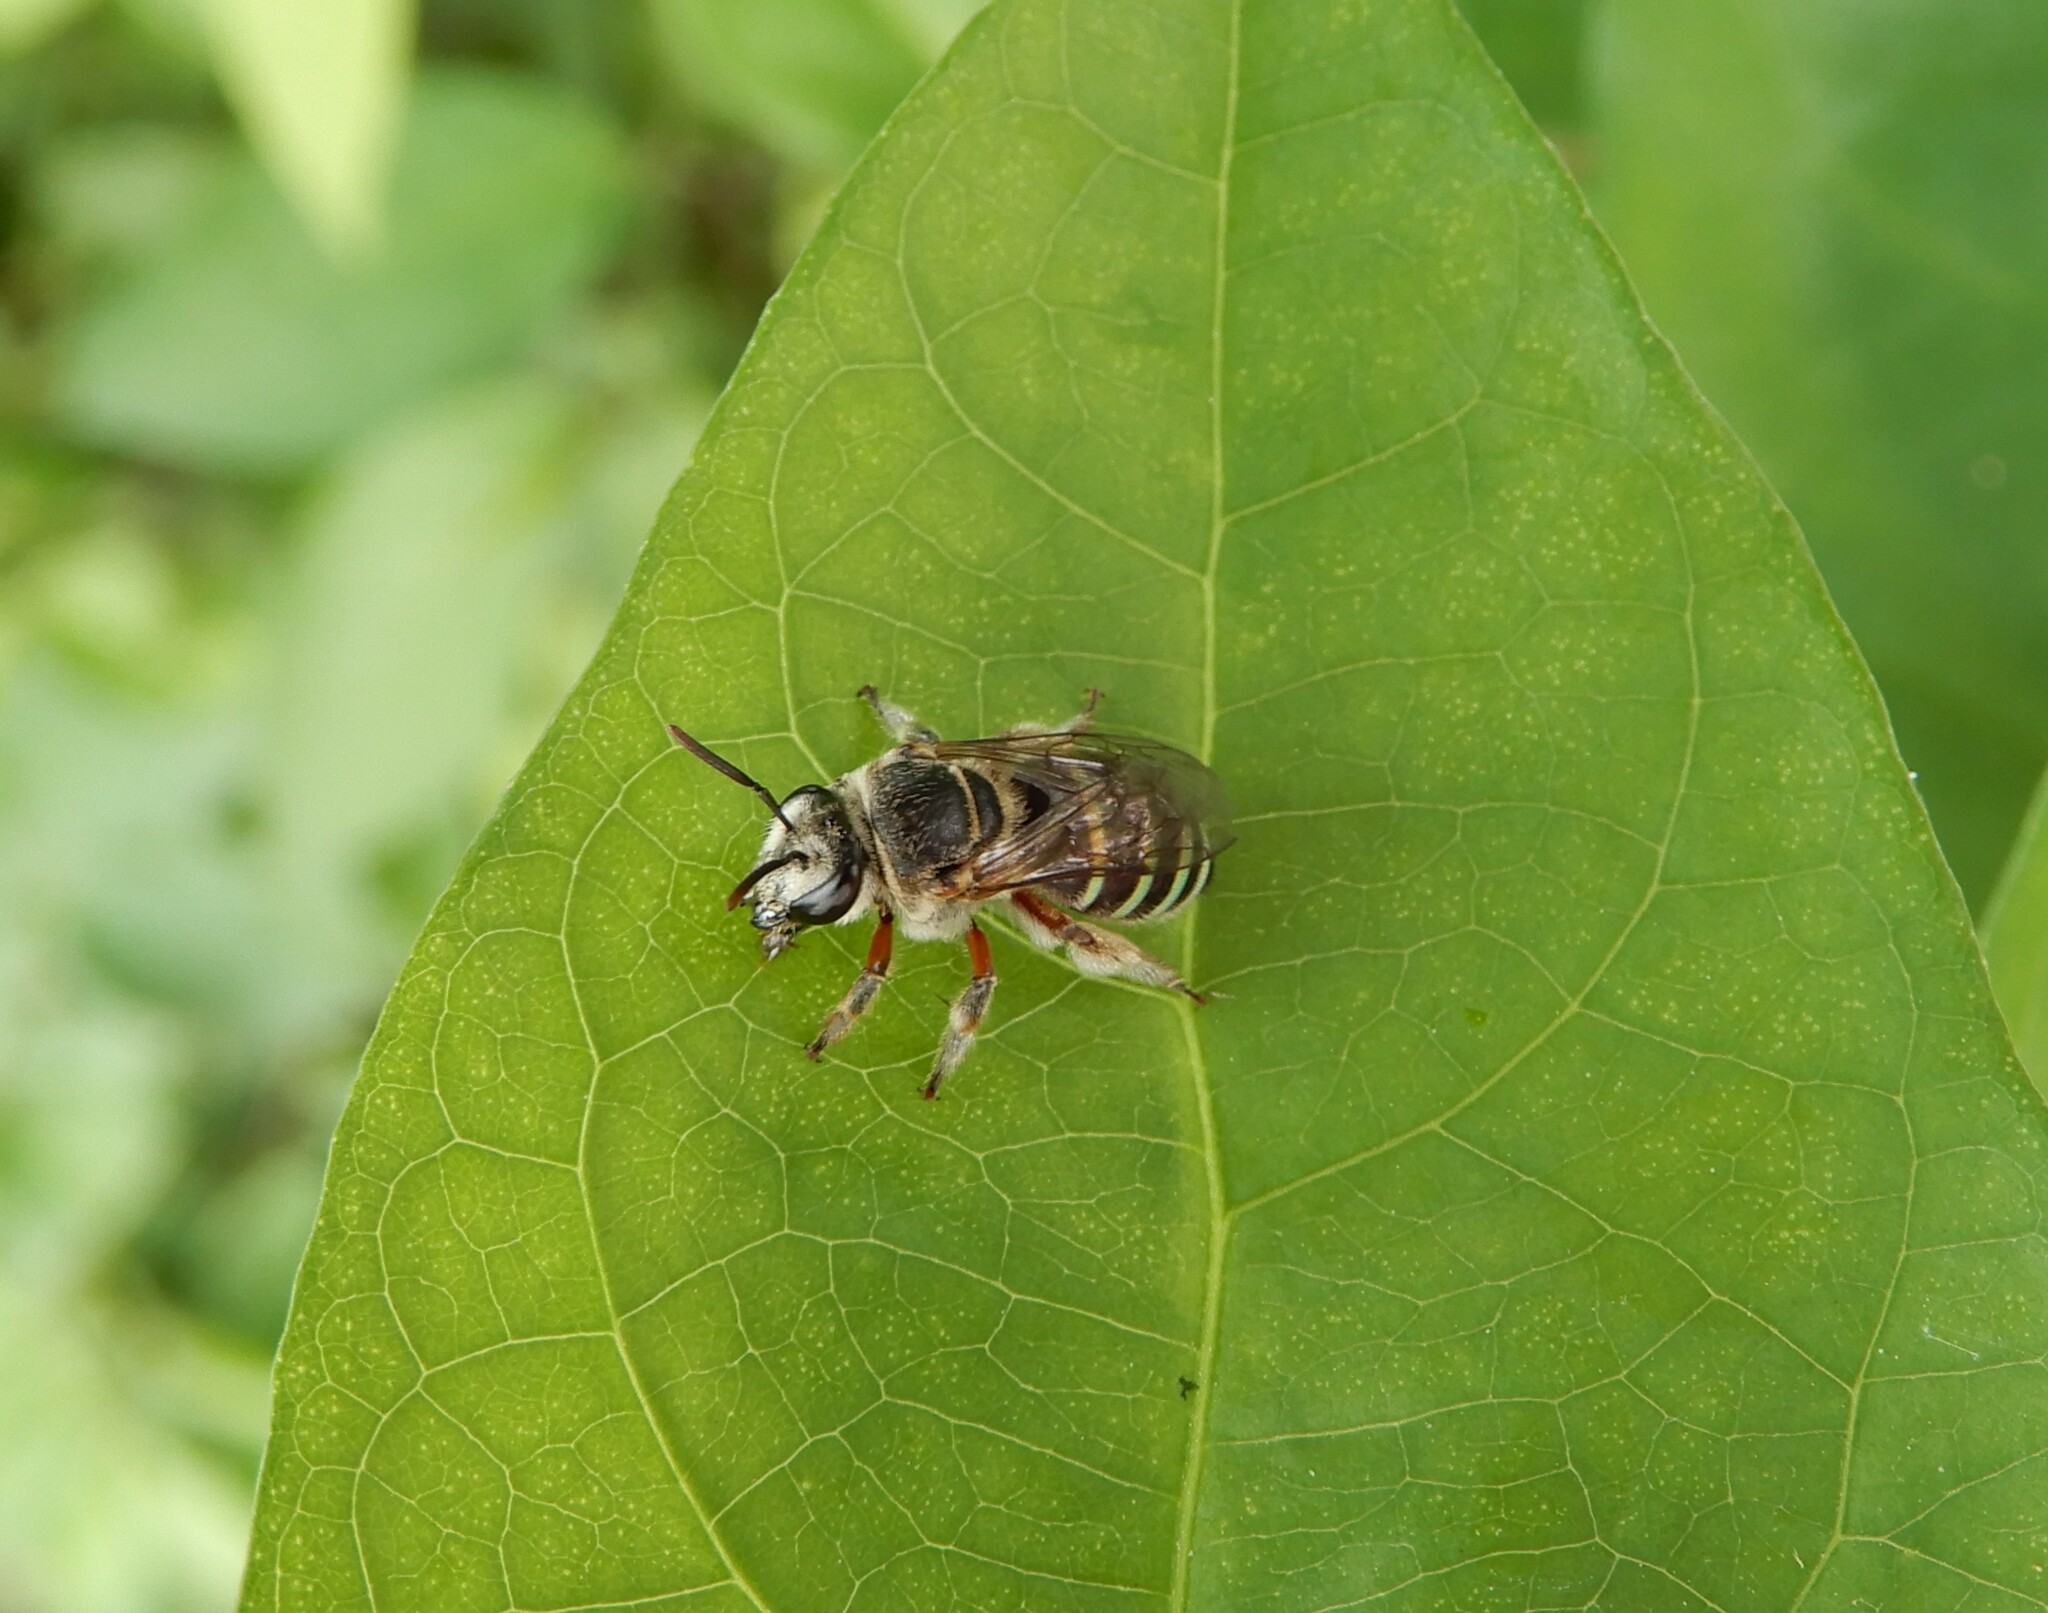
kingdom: Animalia
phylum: Arthropoda
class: Insecta
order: Hymenoptera
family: Halictidae
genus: Nomia
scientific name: Nomia westwoodi
